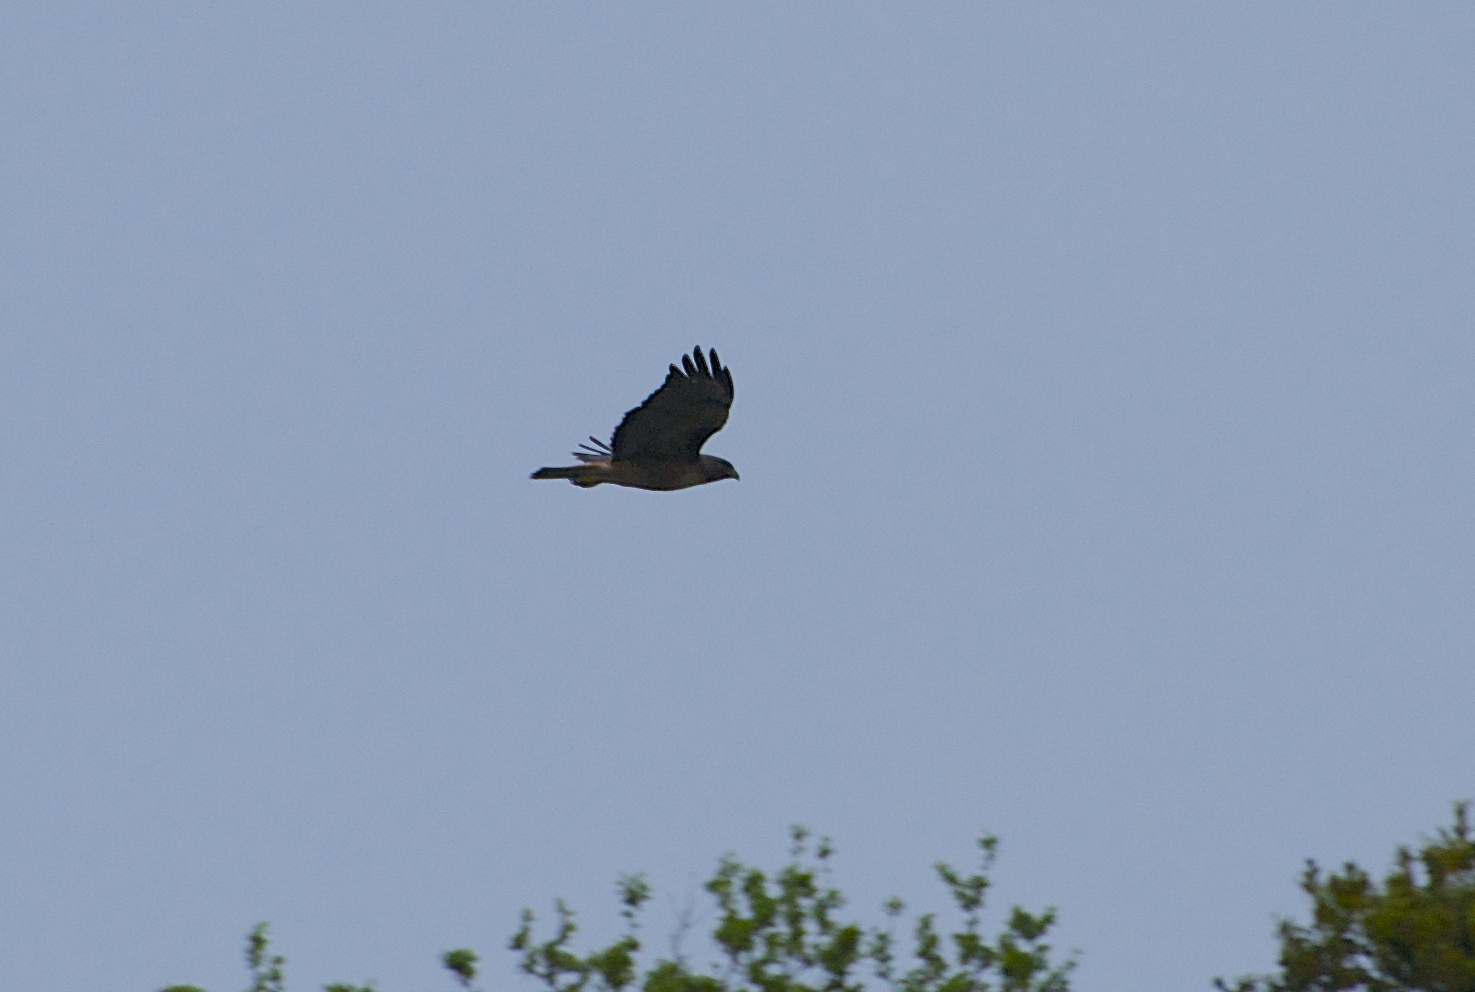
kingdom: Animalia
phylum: Chordata
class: Aves
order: Accipitriformes
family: Accipitridae
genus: Buteo
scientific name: Buteo jamaicensis
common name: Red-tailed hawk
